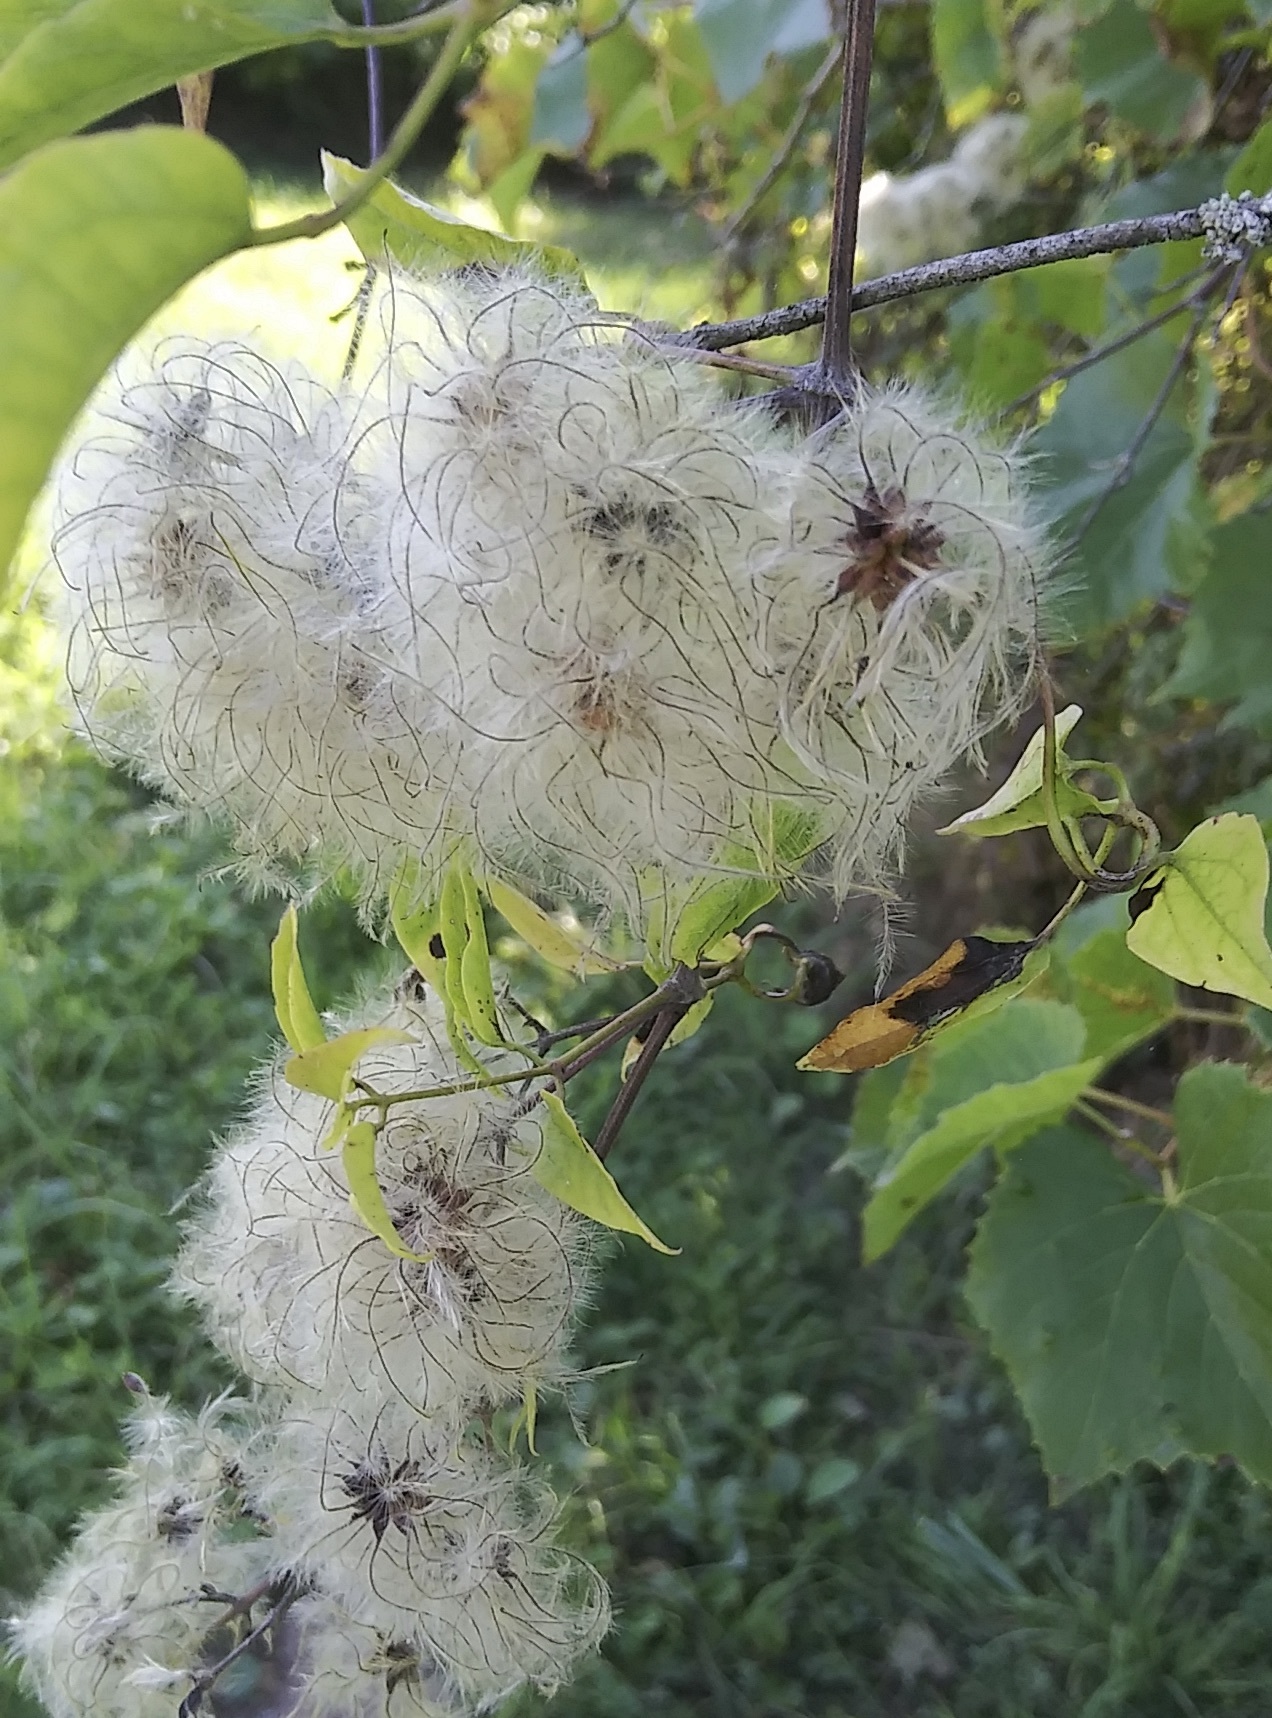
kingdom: Plantae
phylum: Tracheophyta
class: Magnoliopsida
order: Ranunculales
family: Ranunculaceae
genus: Clematis
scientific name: Clematis vitalba
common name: Evergreen clematis
